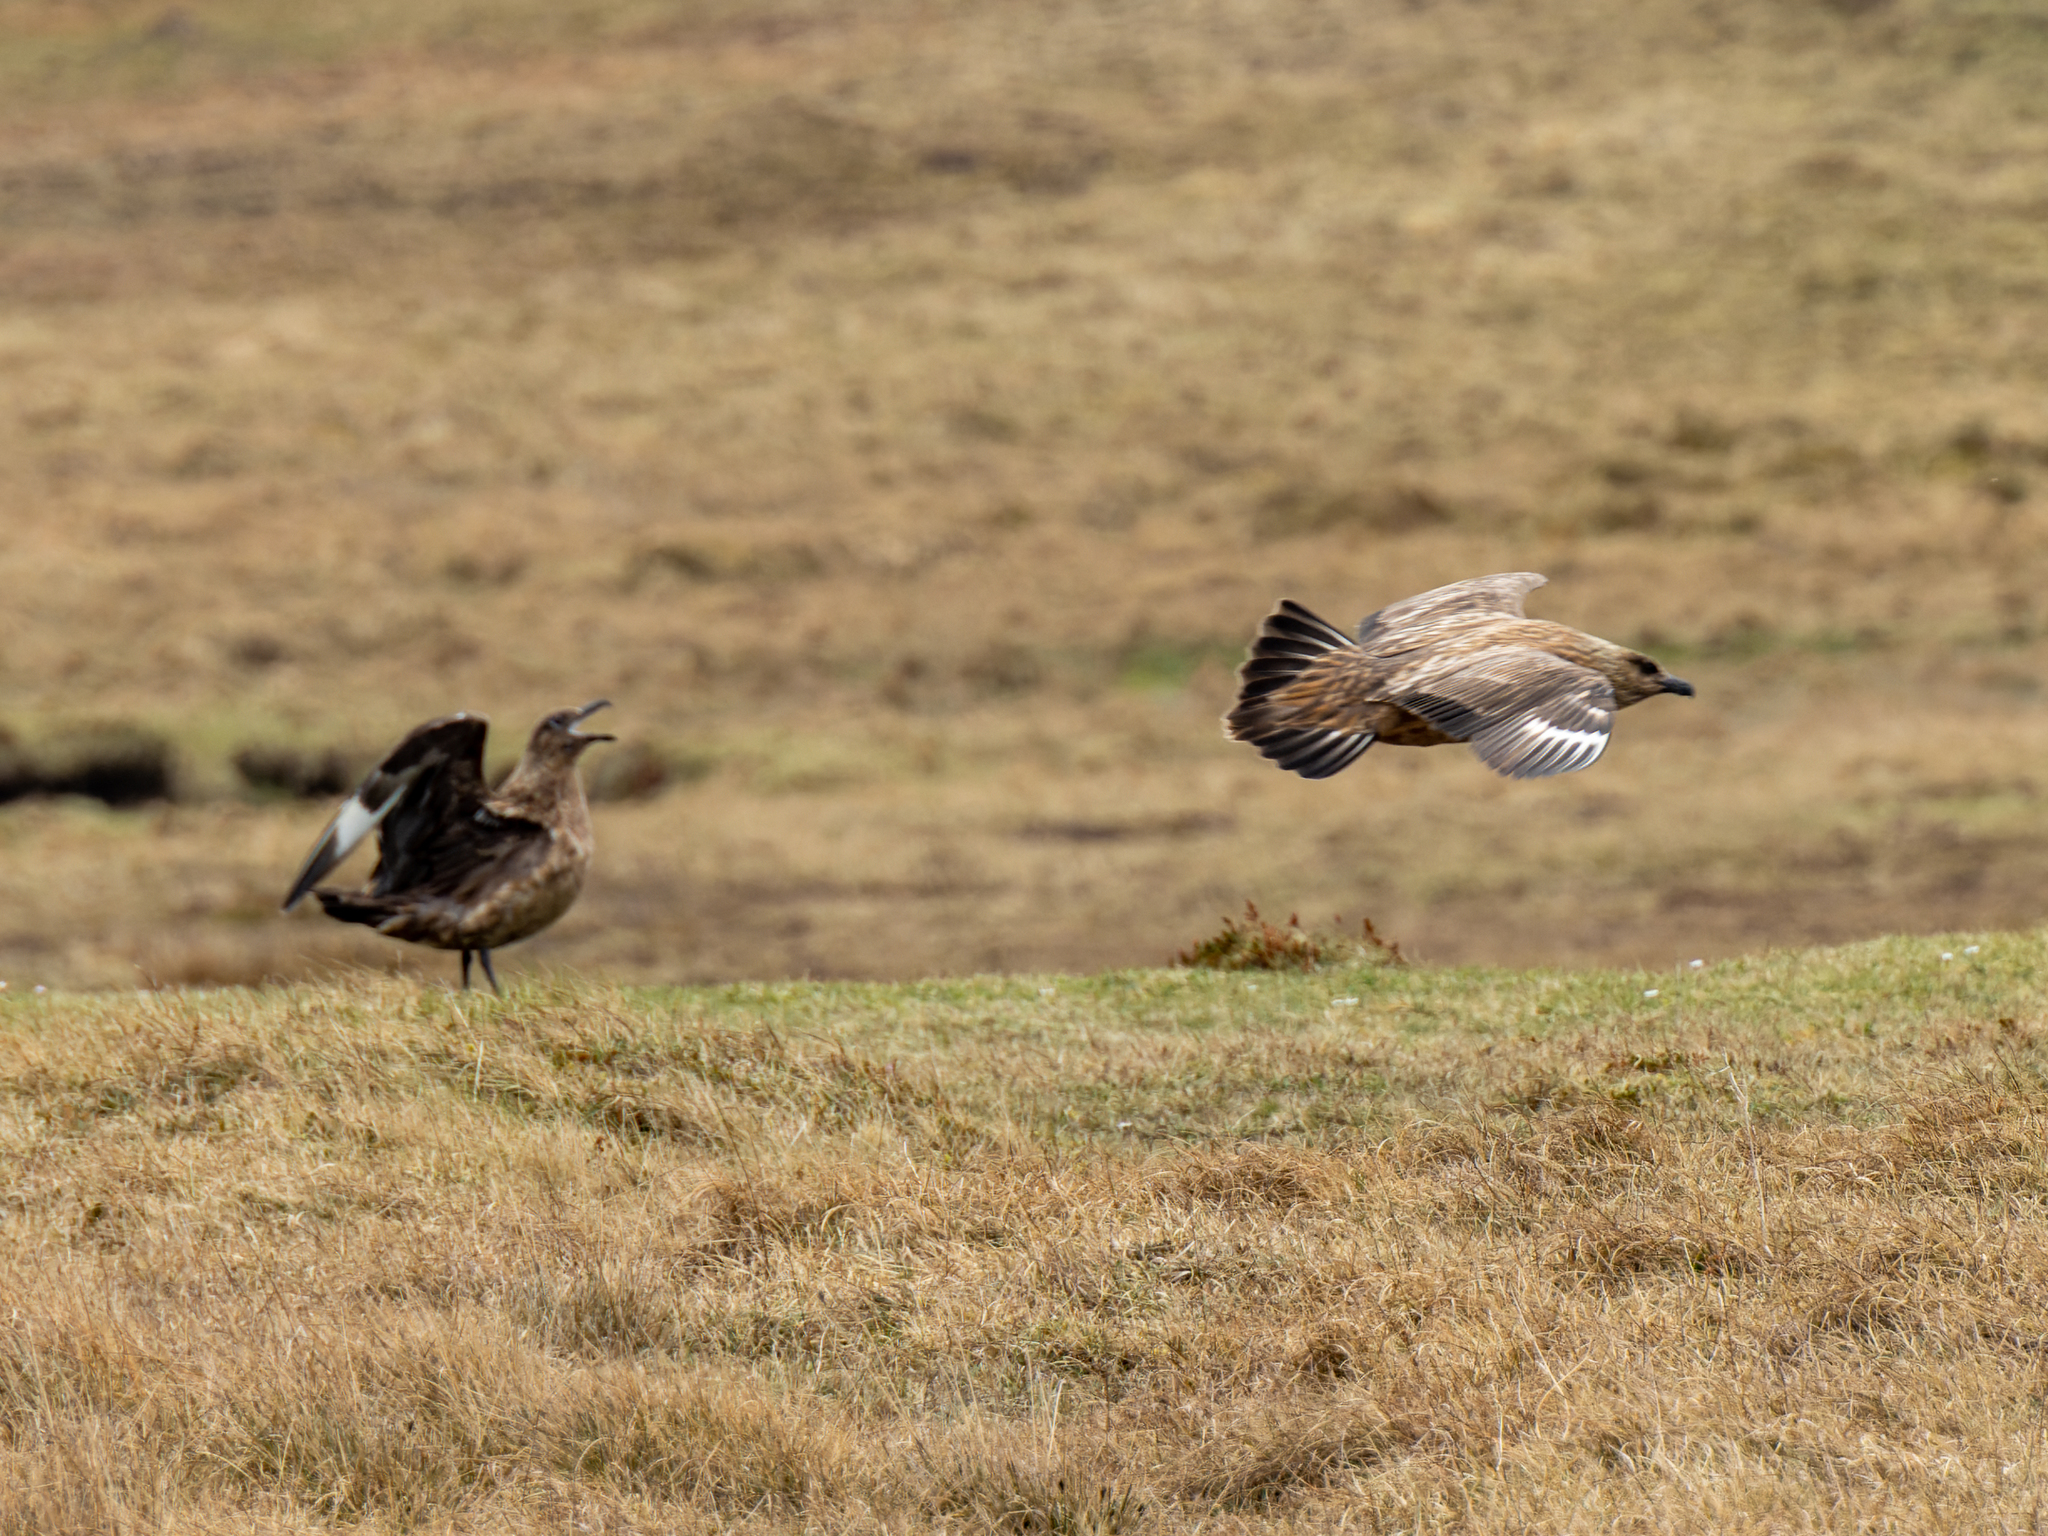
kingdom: Animalia
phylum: Chordata
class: Aves
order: Charadriiformes
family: Stercorariidae
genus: Stercorarius
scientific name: Stercorarius skua
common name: Great skua
